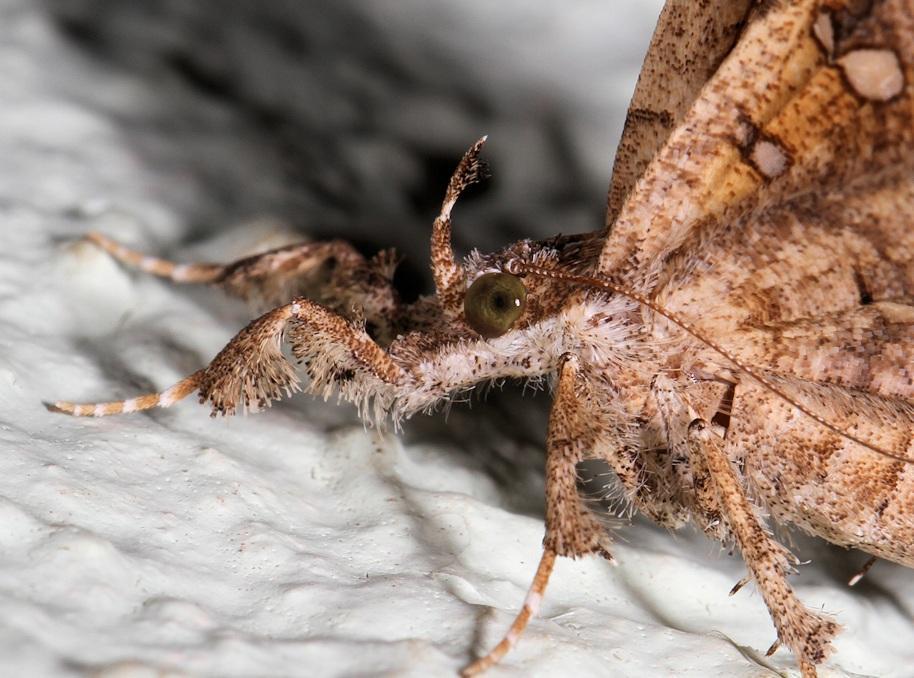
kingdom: Animalia
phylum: Arthropoda
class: Insecta
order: Lepidoptera
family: Erebidae
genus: Egnasia
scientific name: Egnasia vicaria
